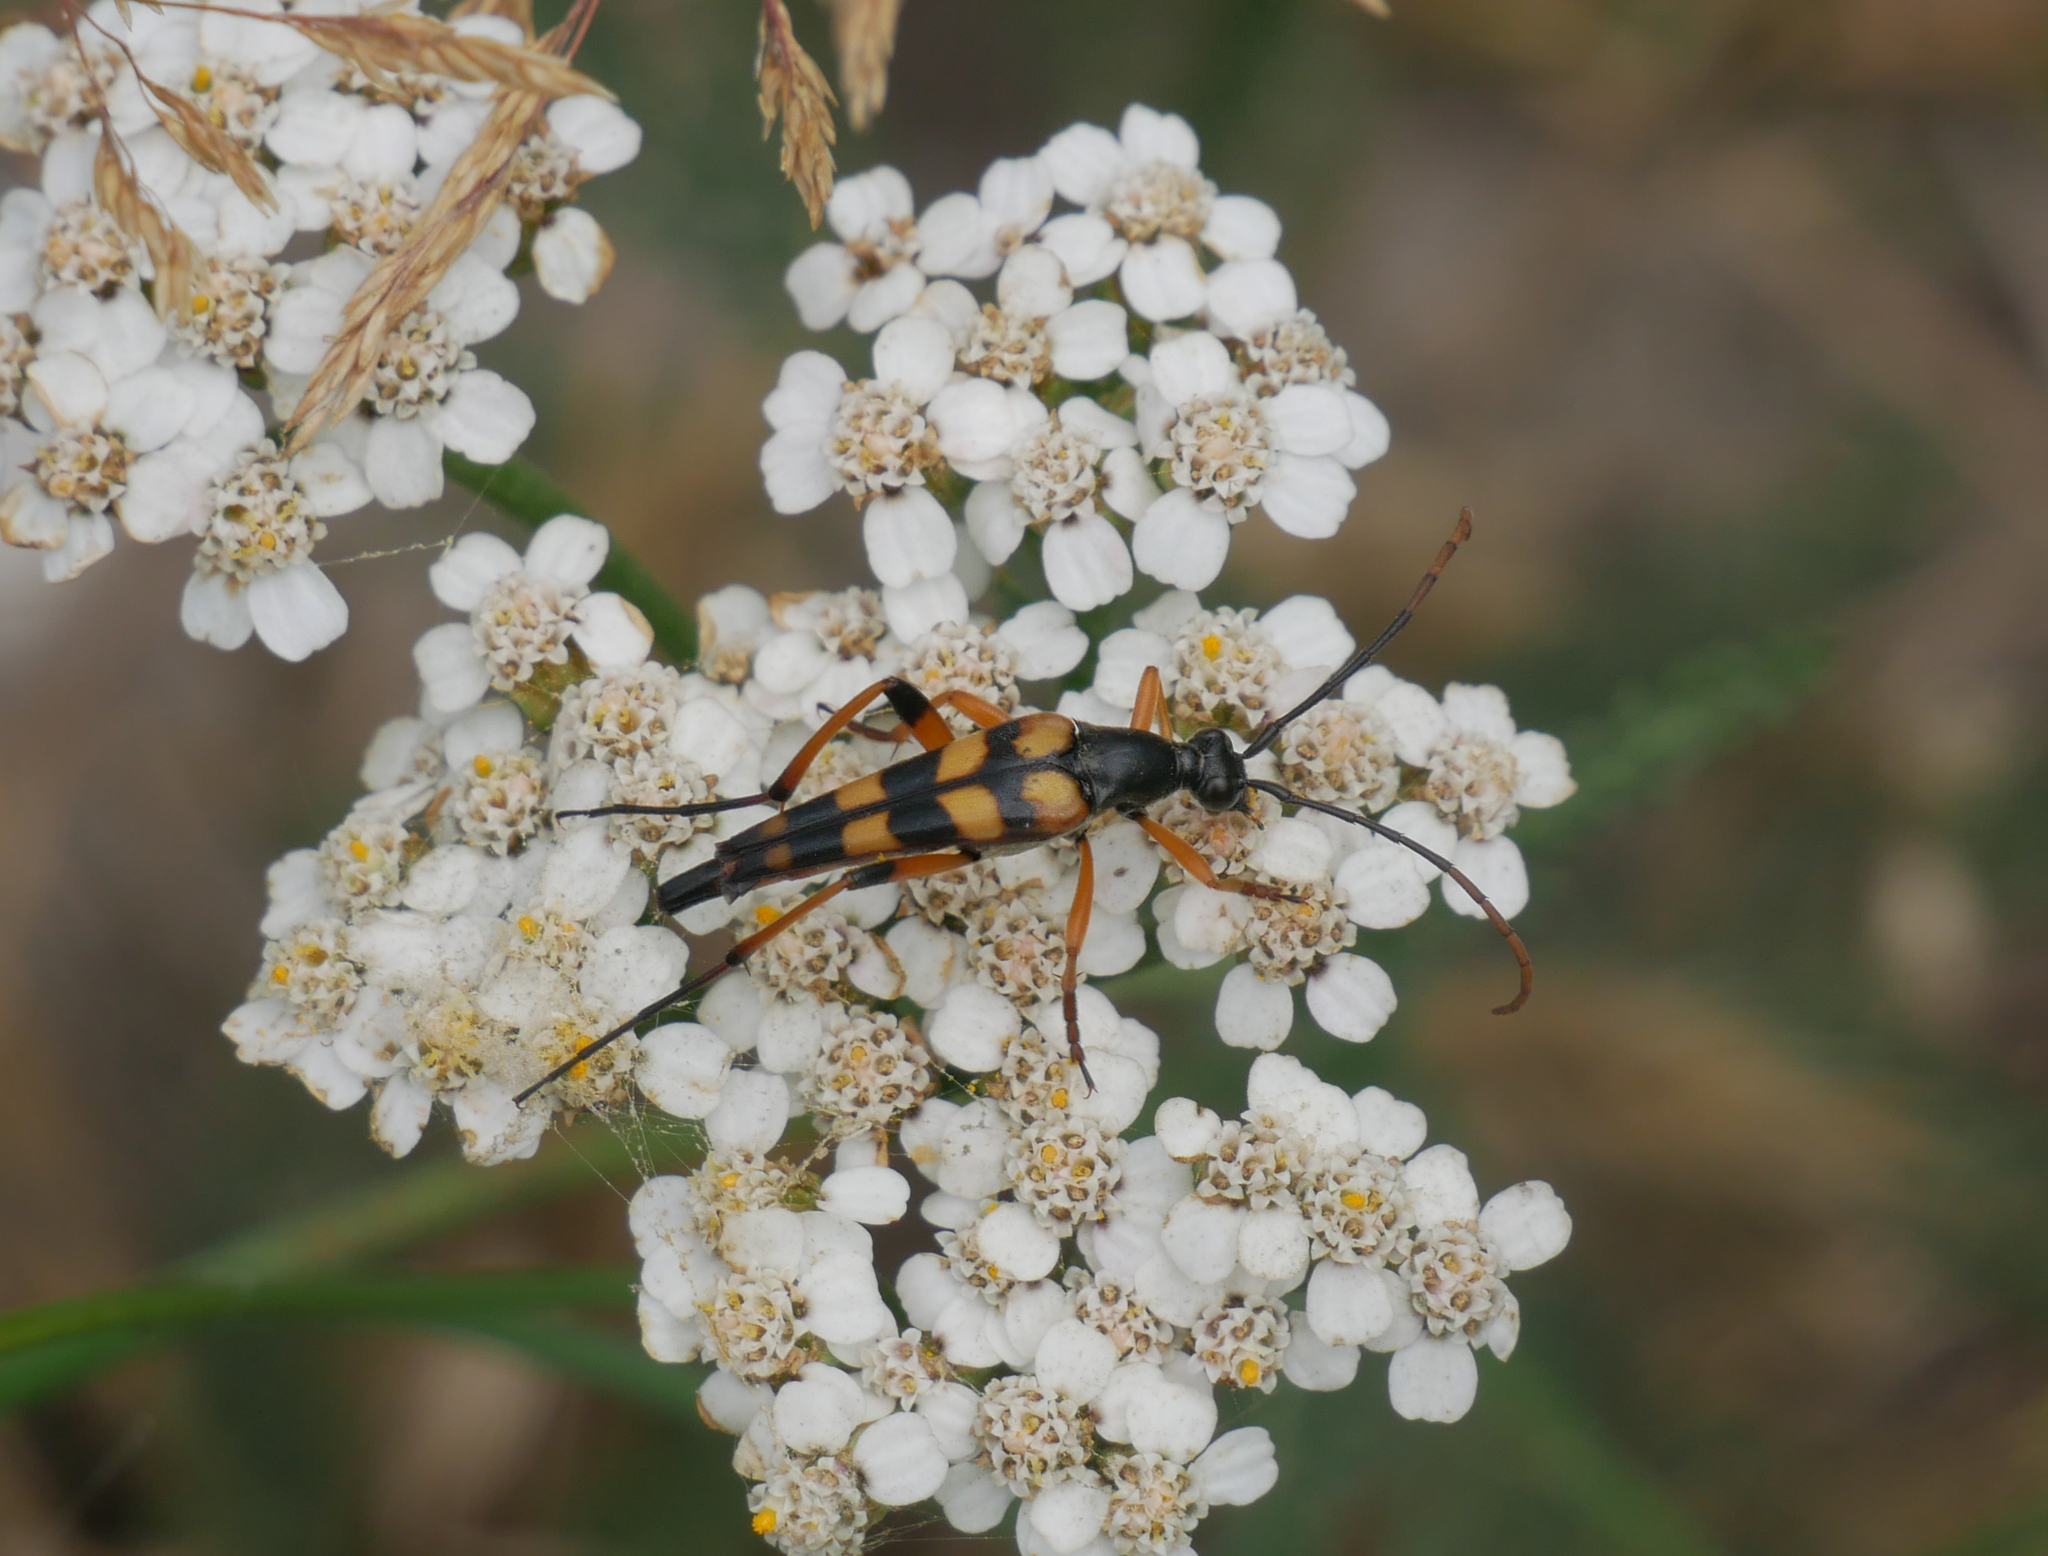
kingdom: Animalia
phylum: Arthropoda
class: Insecta
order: Coleoptera
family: Cerambycidae
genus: Strangalia
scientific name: Strangalia attenuata
